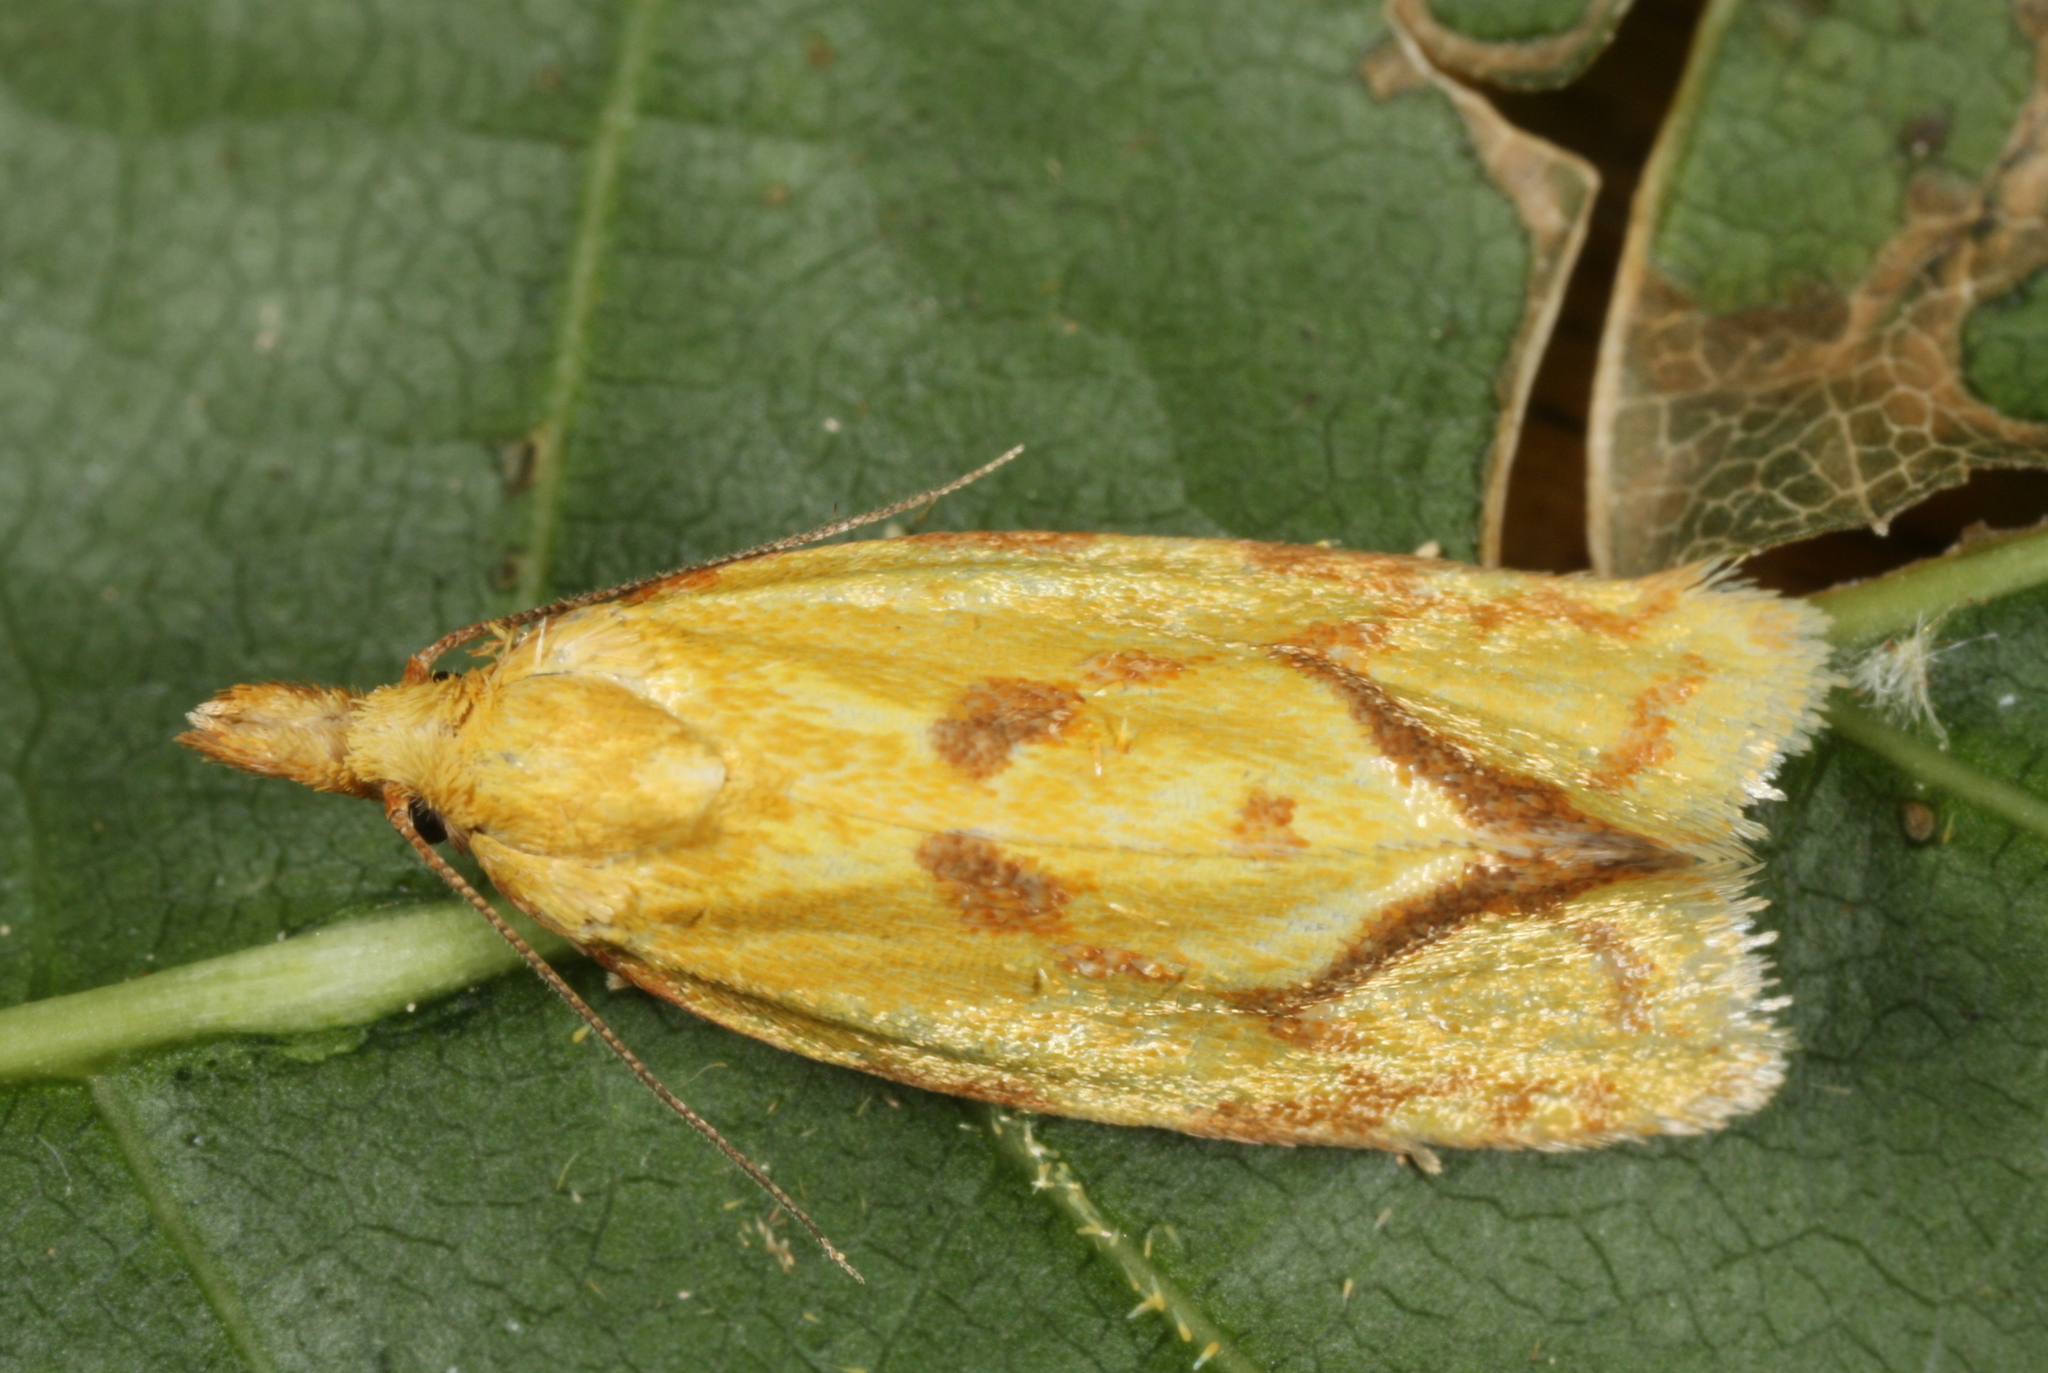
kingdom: Animalia
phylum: Arthropoda
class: Insecta
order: Lepidoptera
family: Tortricidae
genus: Agapeta
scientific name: Agapeta hamana
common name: Common yellow conch
